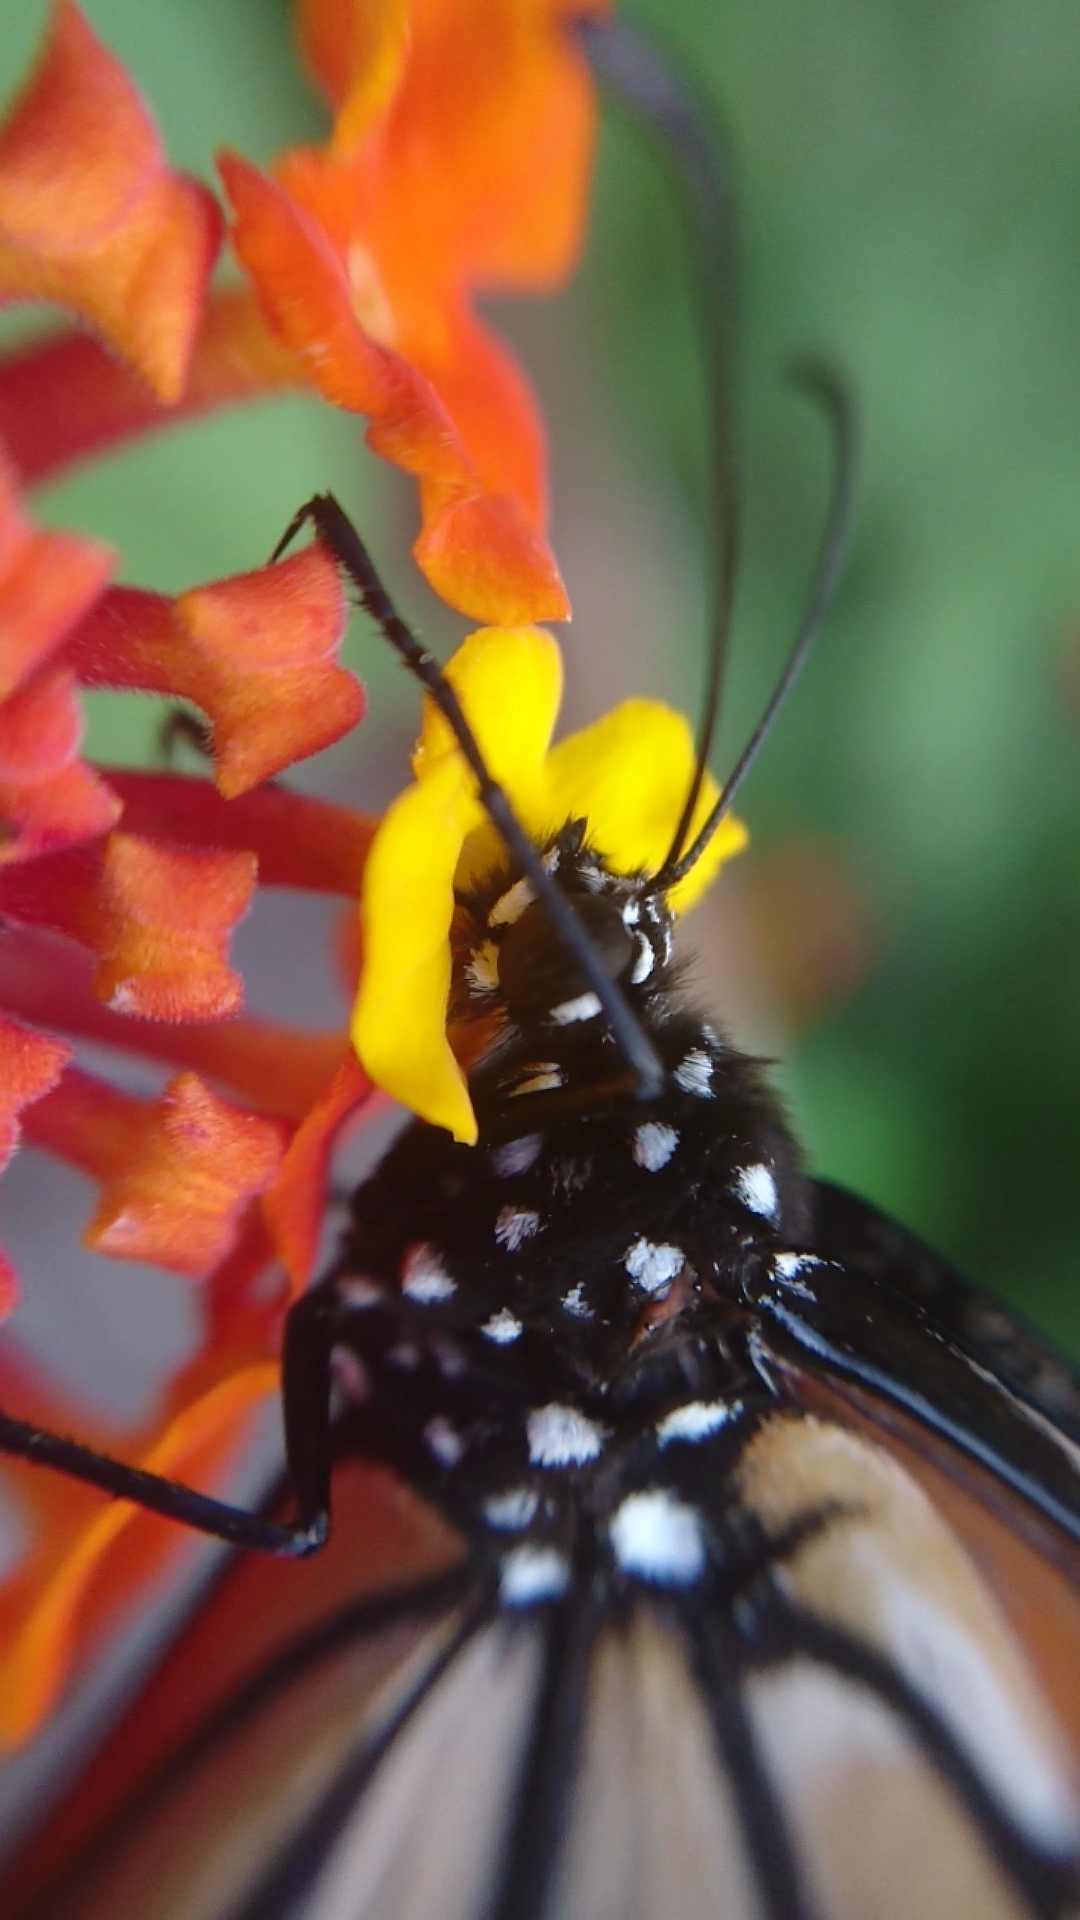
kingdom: Animalia
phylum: Arthropoda
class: Insecta
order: Lepidoptera
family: Nymphalidae
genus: Danaus
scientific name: Danaus erippus
